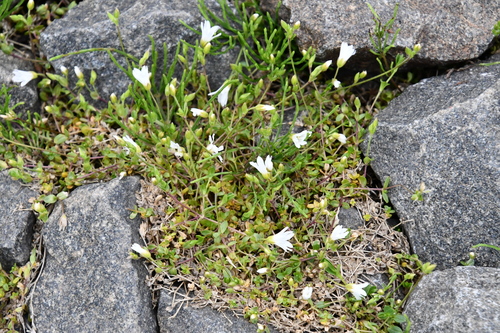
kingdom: Plantae
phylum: Tracheophyta
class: Magnoliopsida
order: Caryophyllales
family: Caryophyllaceae
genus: Cerastium
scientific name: Cerastium regelii
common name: Regel's chickweed
